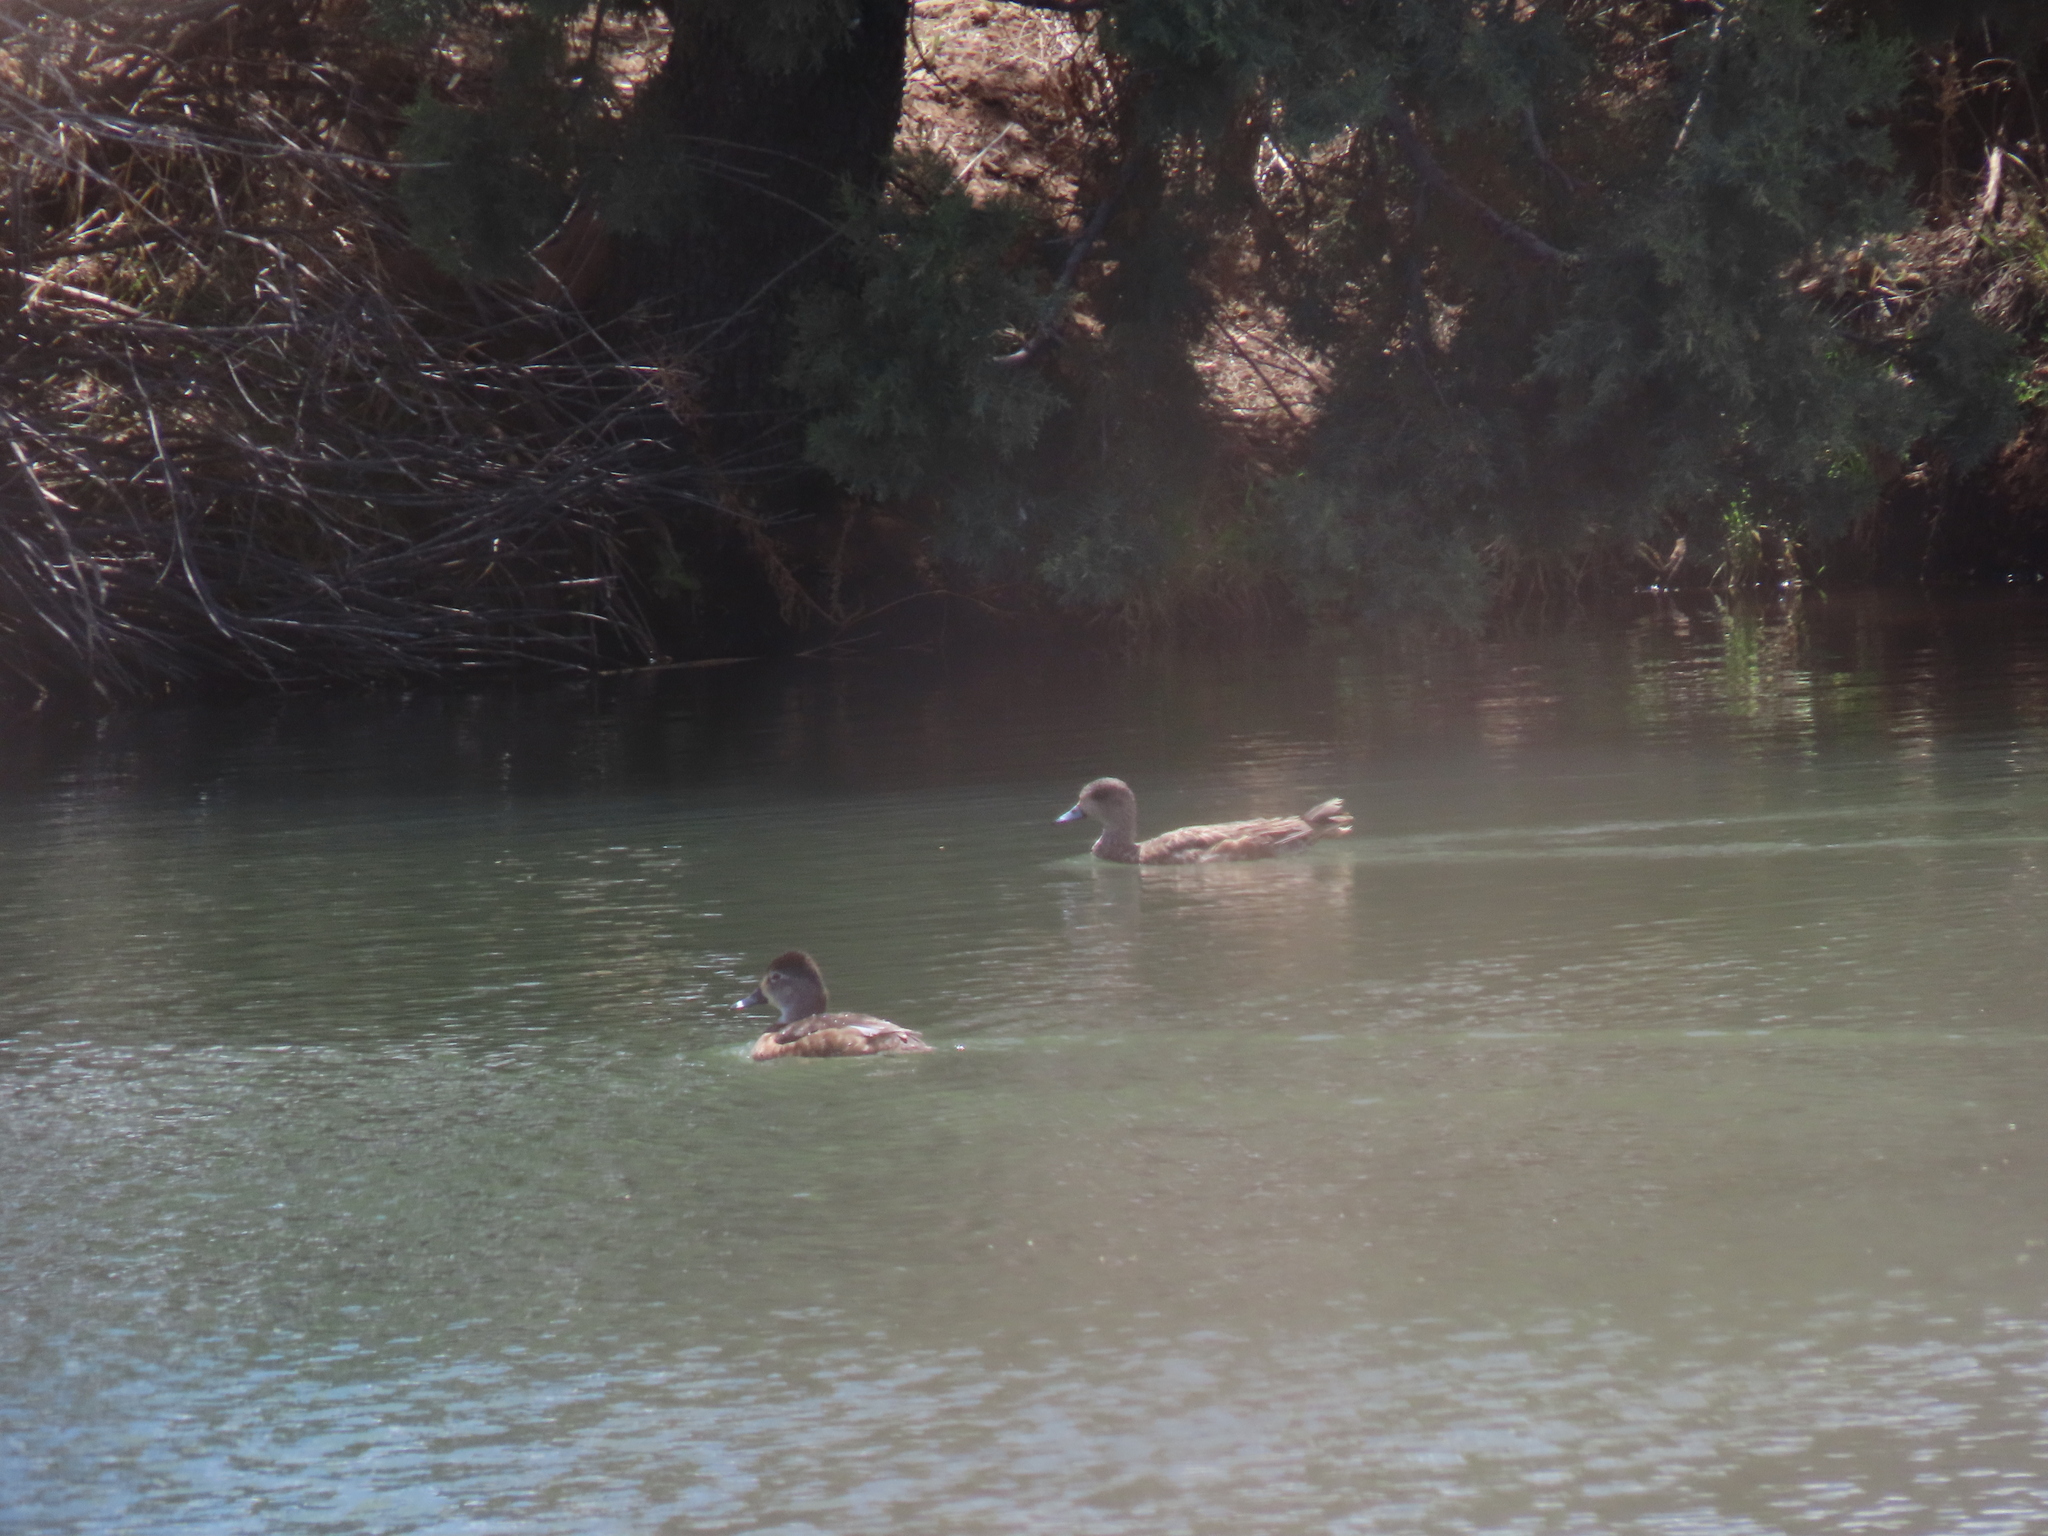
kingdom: Animalia
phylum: Chordata
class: Aves
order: Anseriformes
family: Anatidae
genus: Mareca
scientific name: Mareca americana
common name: American wigeon
